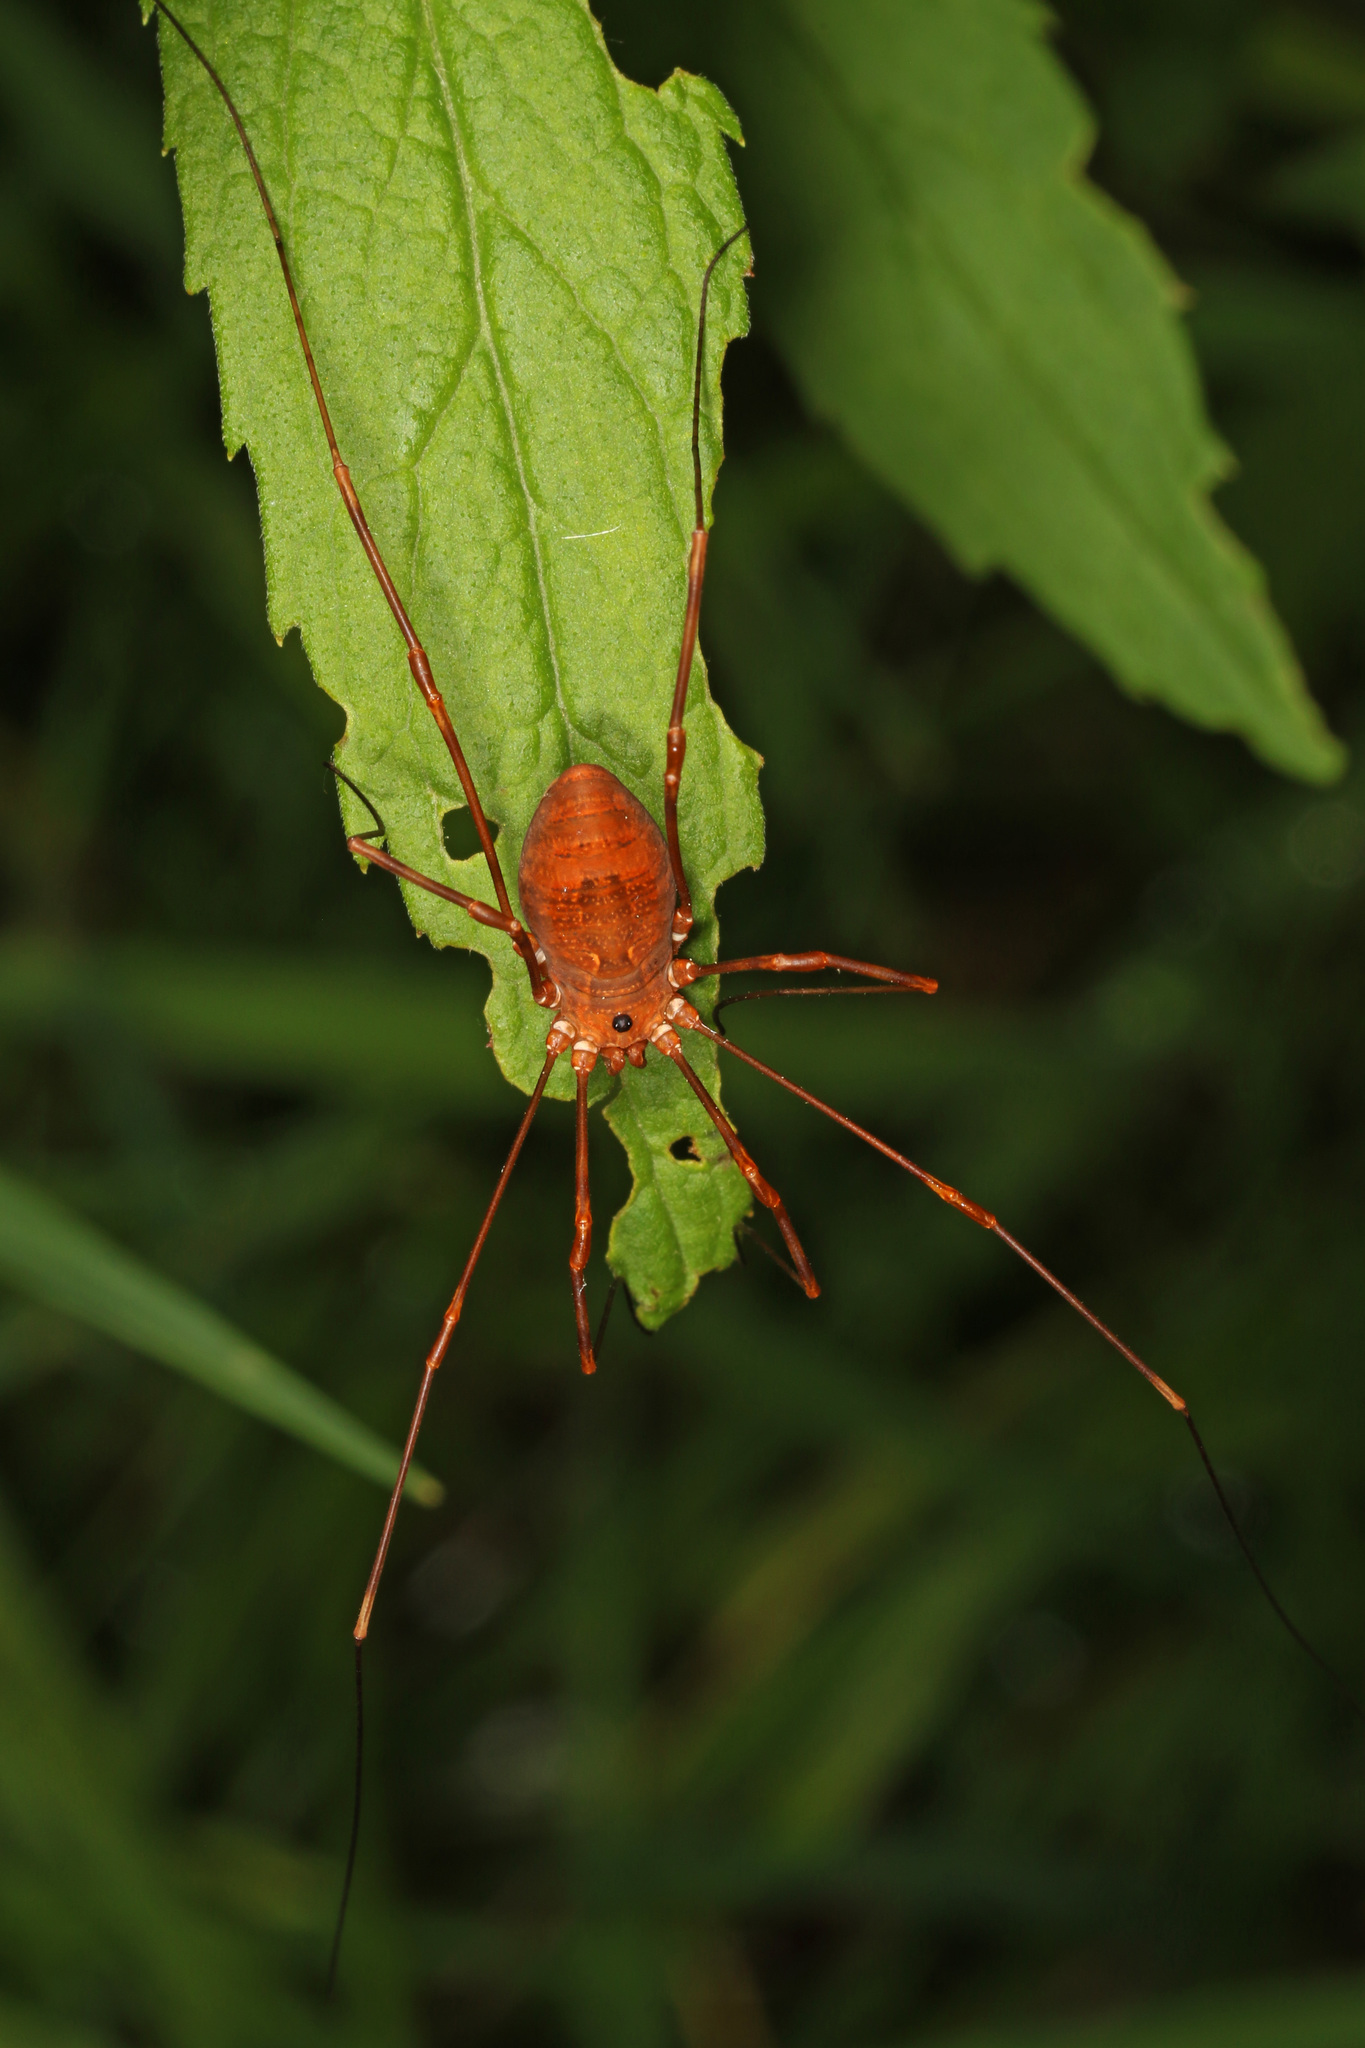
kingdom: Animalia
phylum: Arthropoda
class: Arachnida
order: Opiliones
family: Sclerosomatidae
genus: Leiobunum
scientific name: Leiobunum ventricosum
